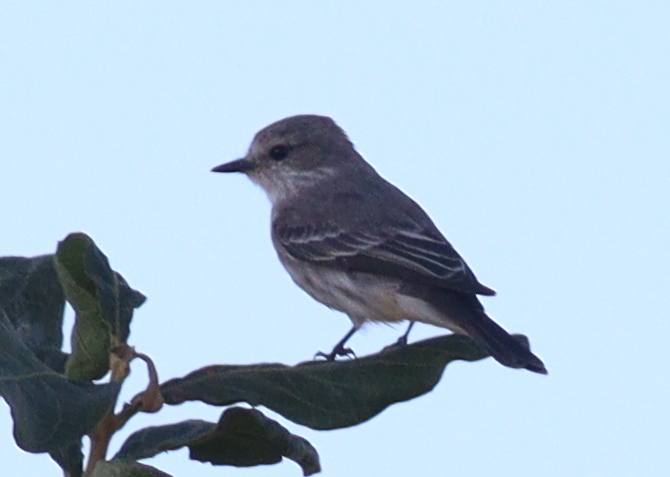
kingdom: Animalia
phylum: Chordata
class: Aves
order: Passeriformes
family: Tyrannidae
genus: Pyrocephalus
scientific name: Pyrocephalus rubinus
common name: Vermilion flycatcher
